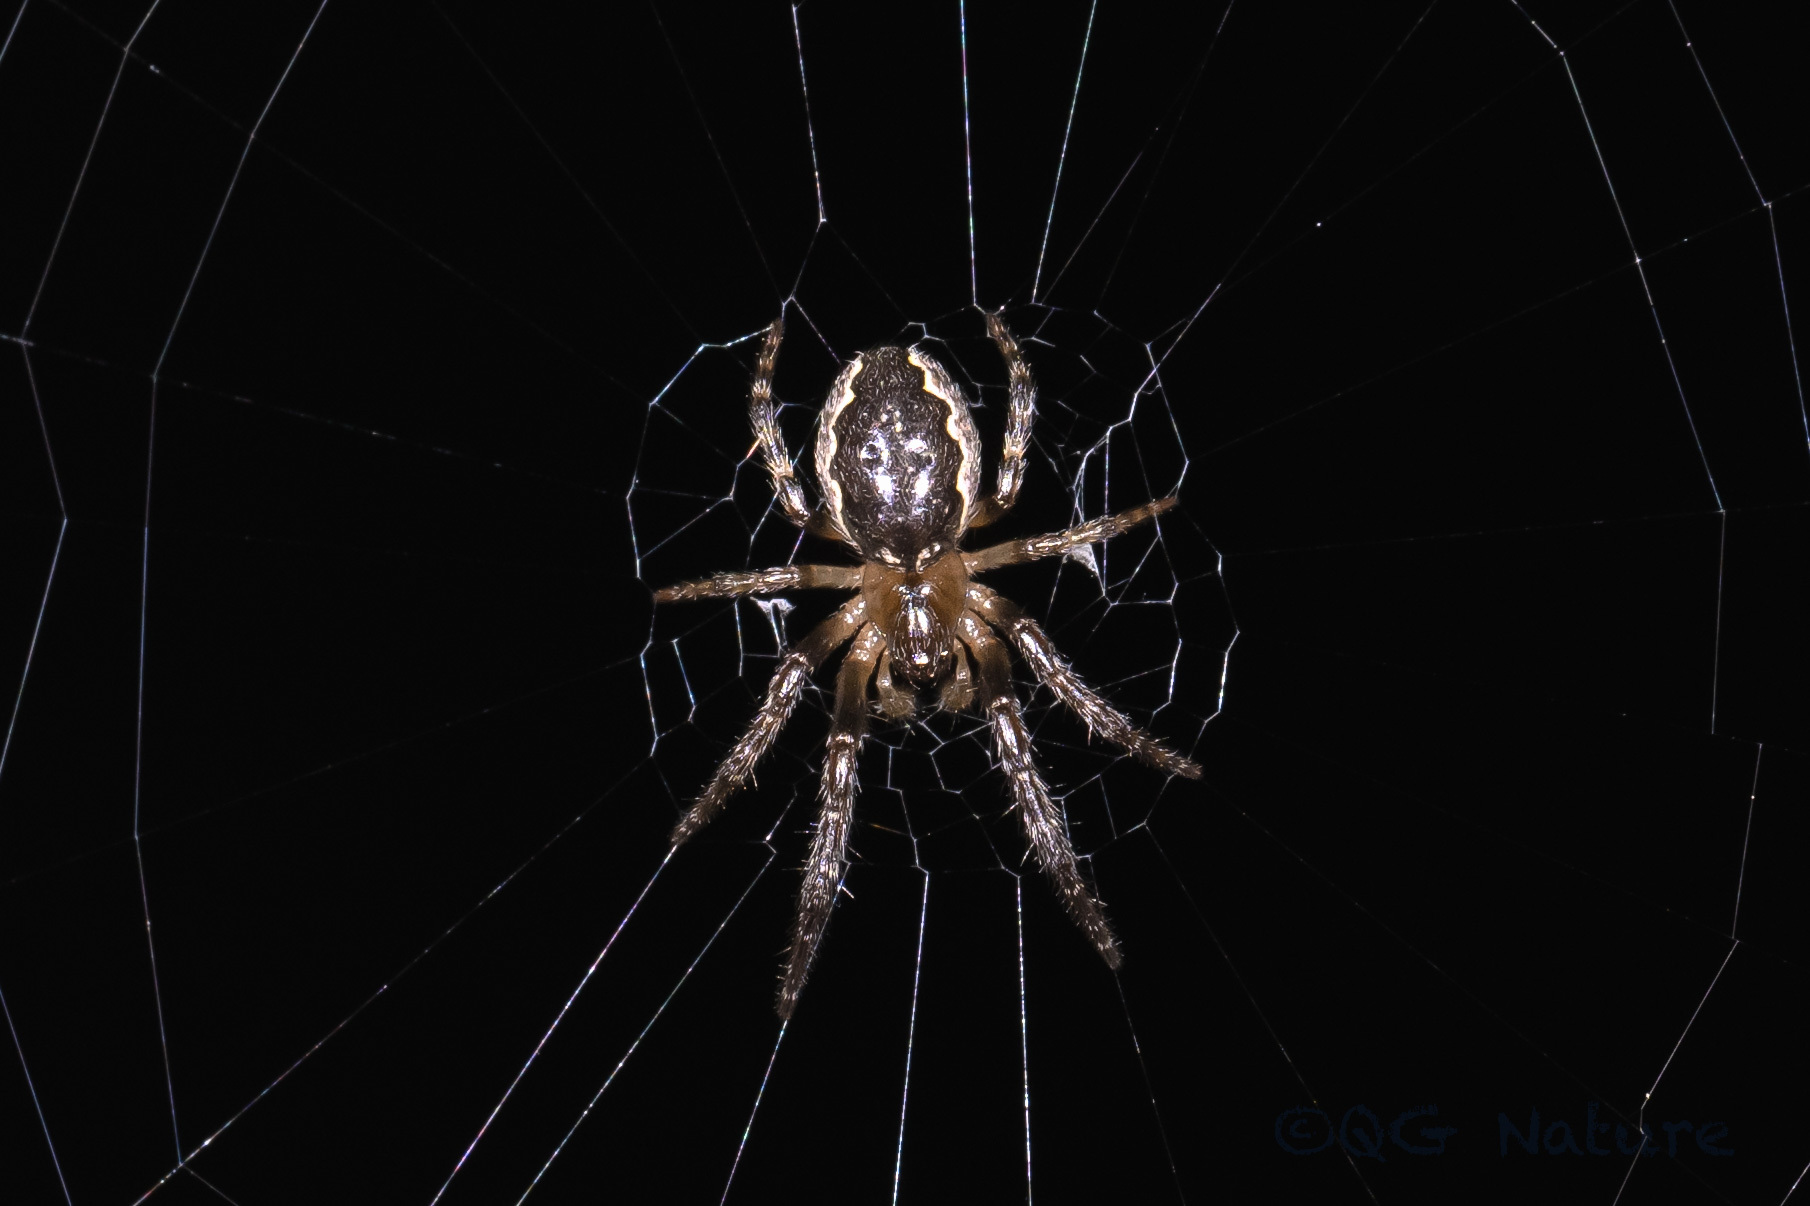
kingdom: Animalia
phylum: Arthropoda
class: Arachnida
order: Araneae
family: Araneidae
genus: Yaginumia
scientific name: Yaginumia sia
